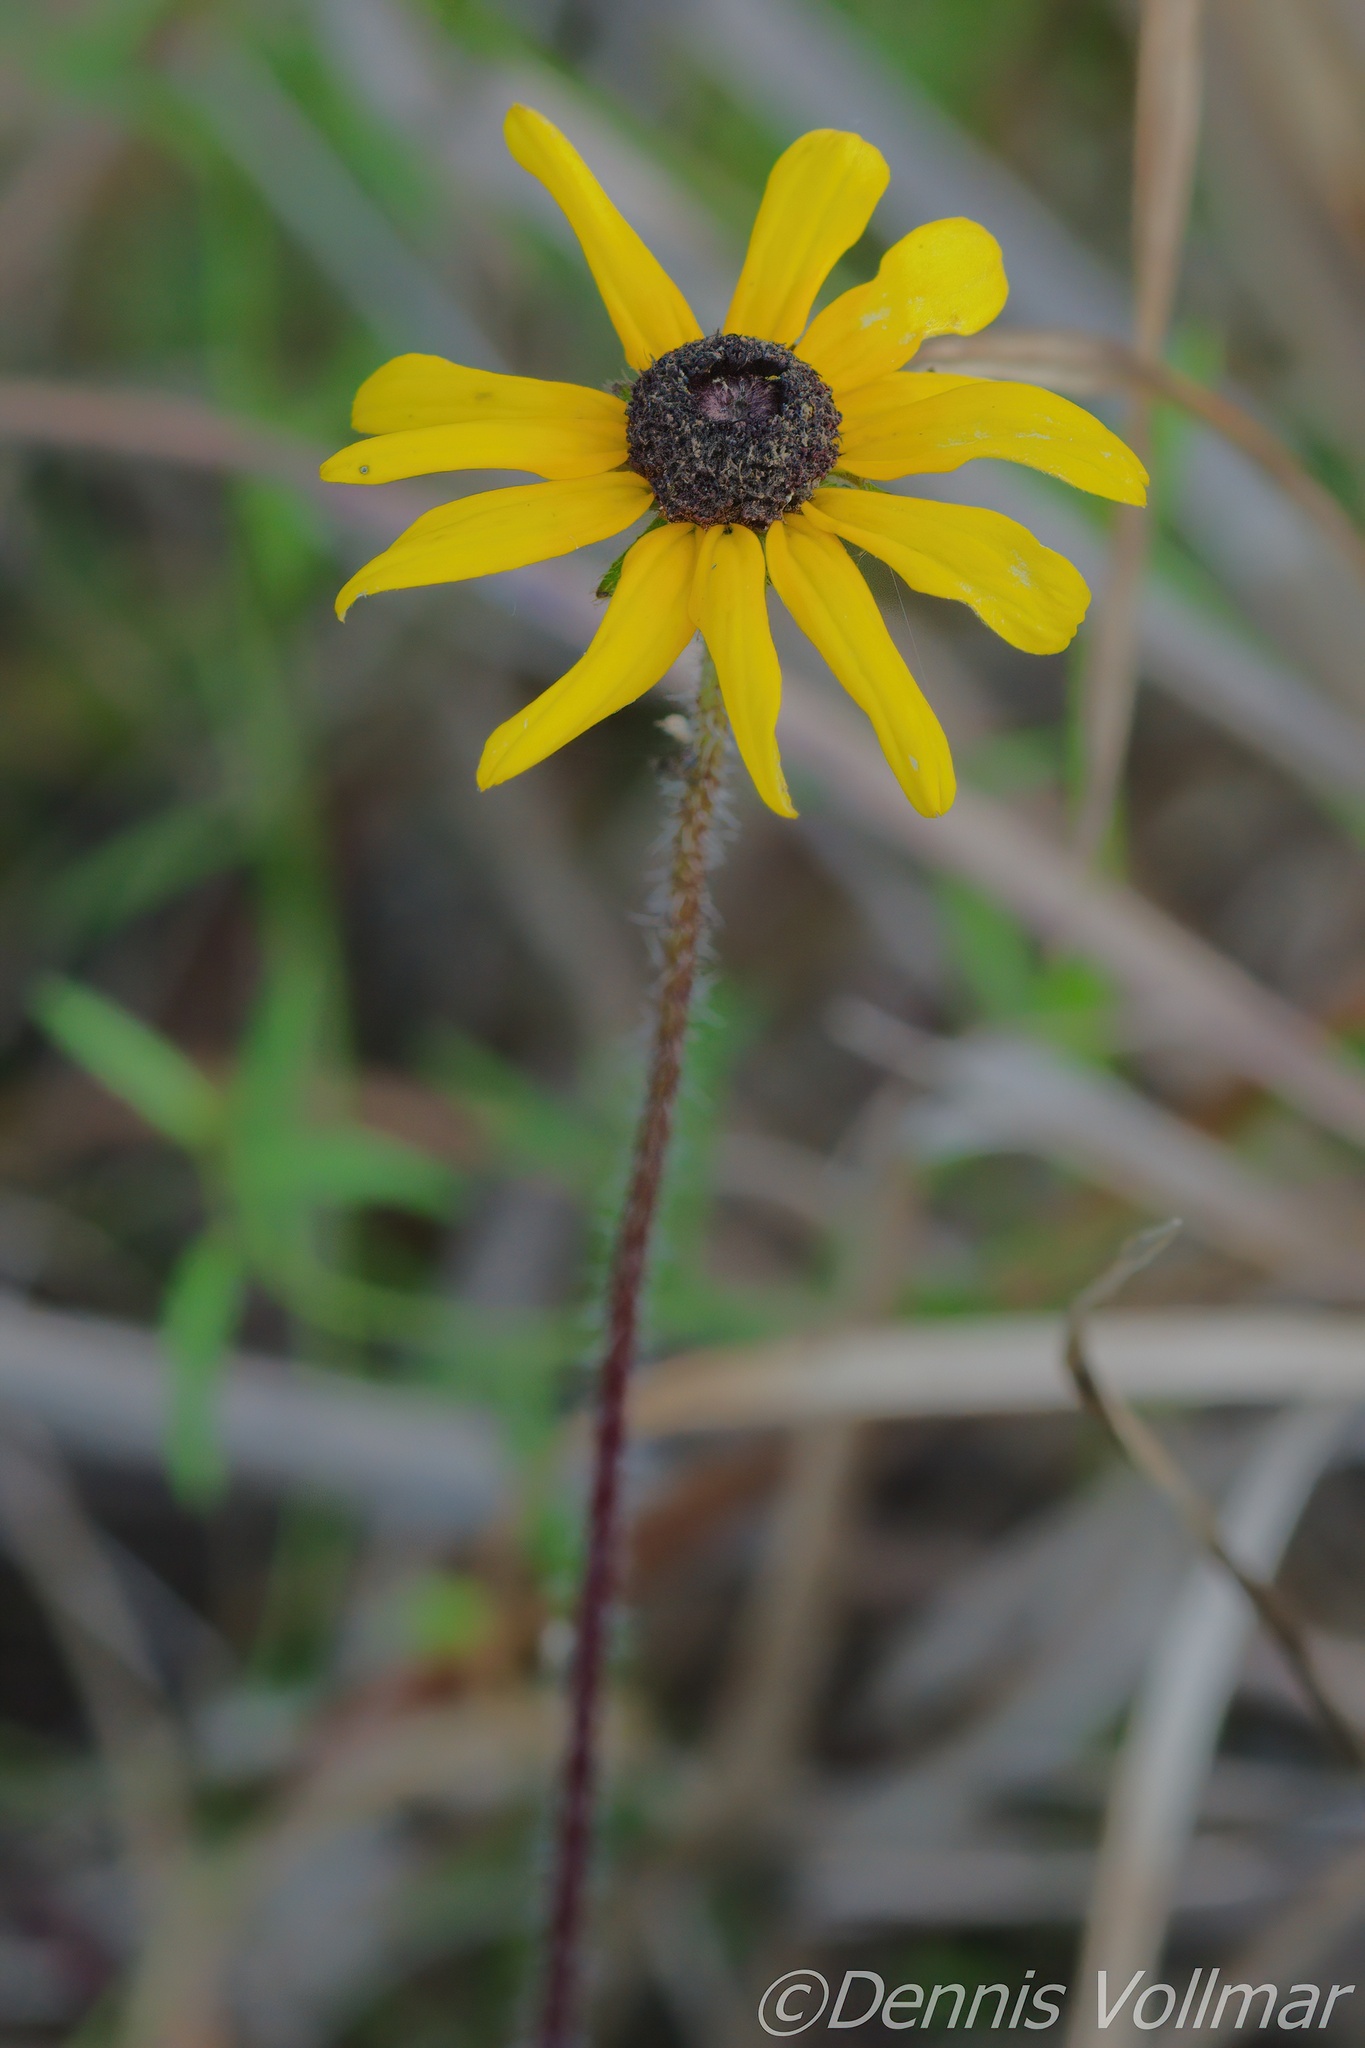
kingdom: Plantae
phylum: Tracheophyta
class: Magnoliopsida
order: Asterales
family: Asteraceae
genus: Rudbeckia
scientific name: Rudbeckia hirta
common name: Black-eyed-susan
